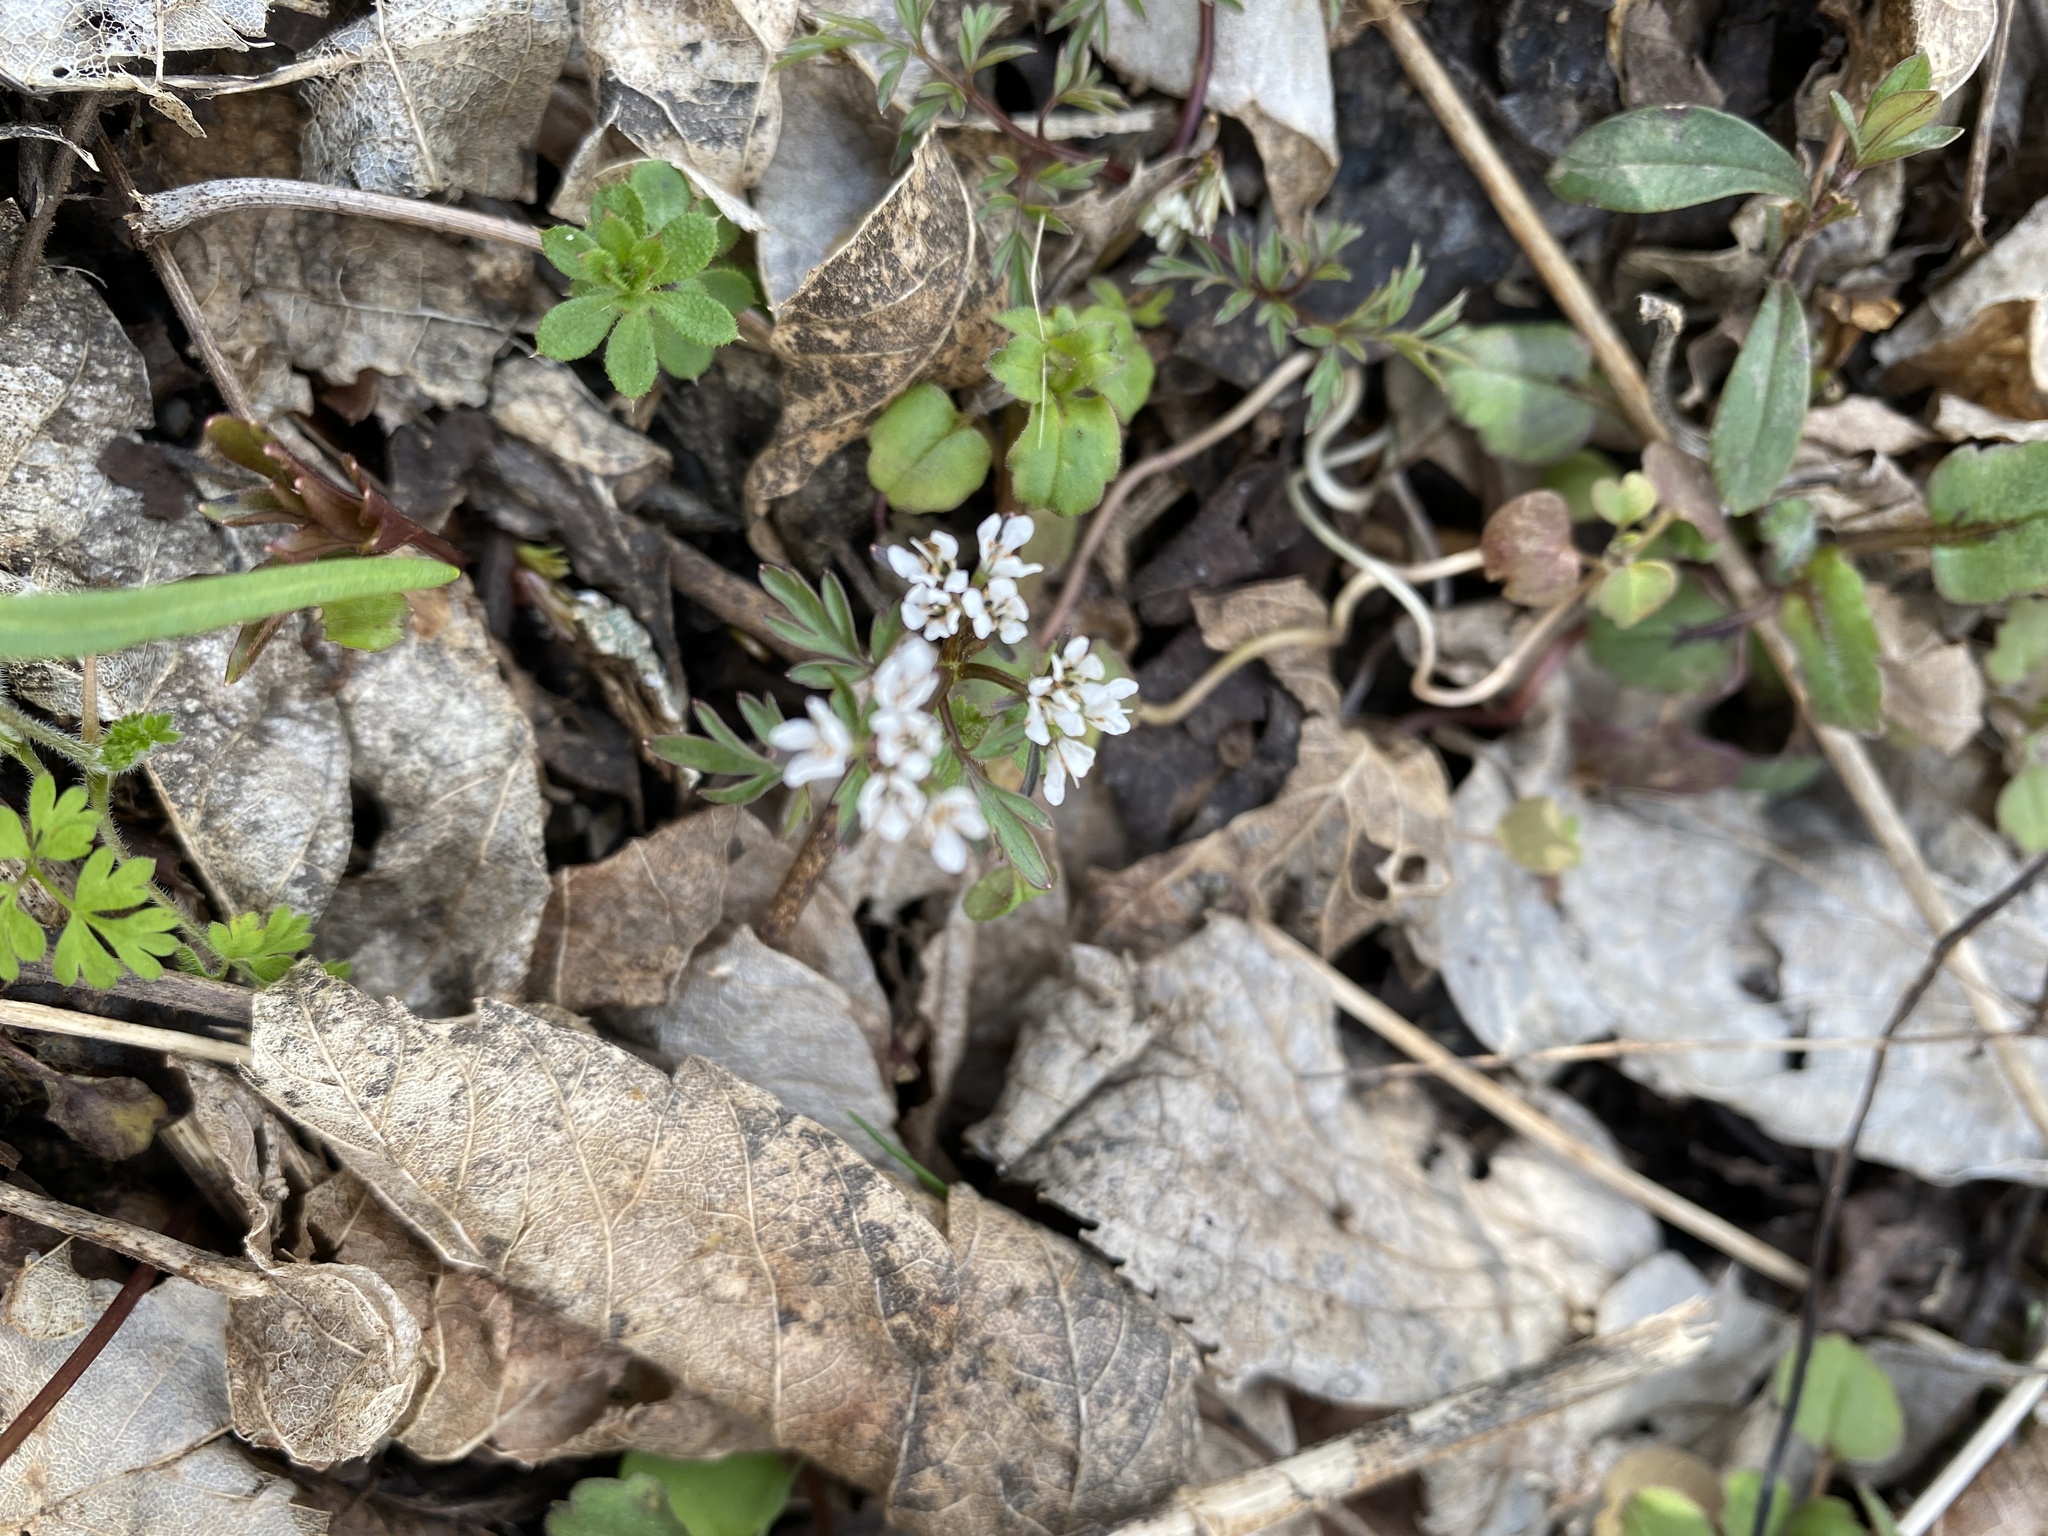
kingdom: Plantae
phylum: Tracheophyta
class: Magnoliopsida
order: Apiales
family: Apiaceae
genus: Erigenia
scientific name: Erigenia bulbosa
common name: Pepper-and-salt
